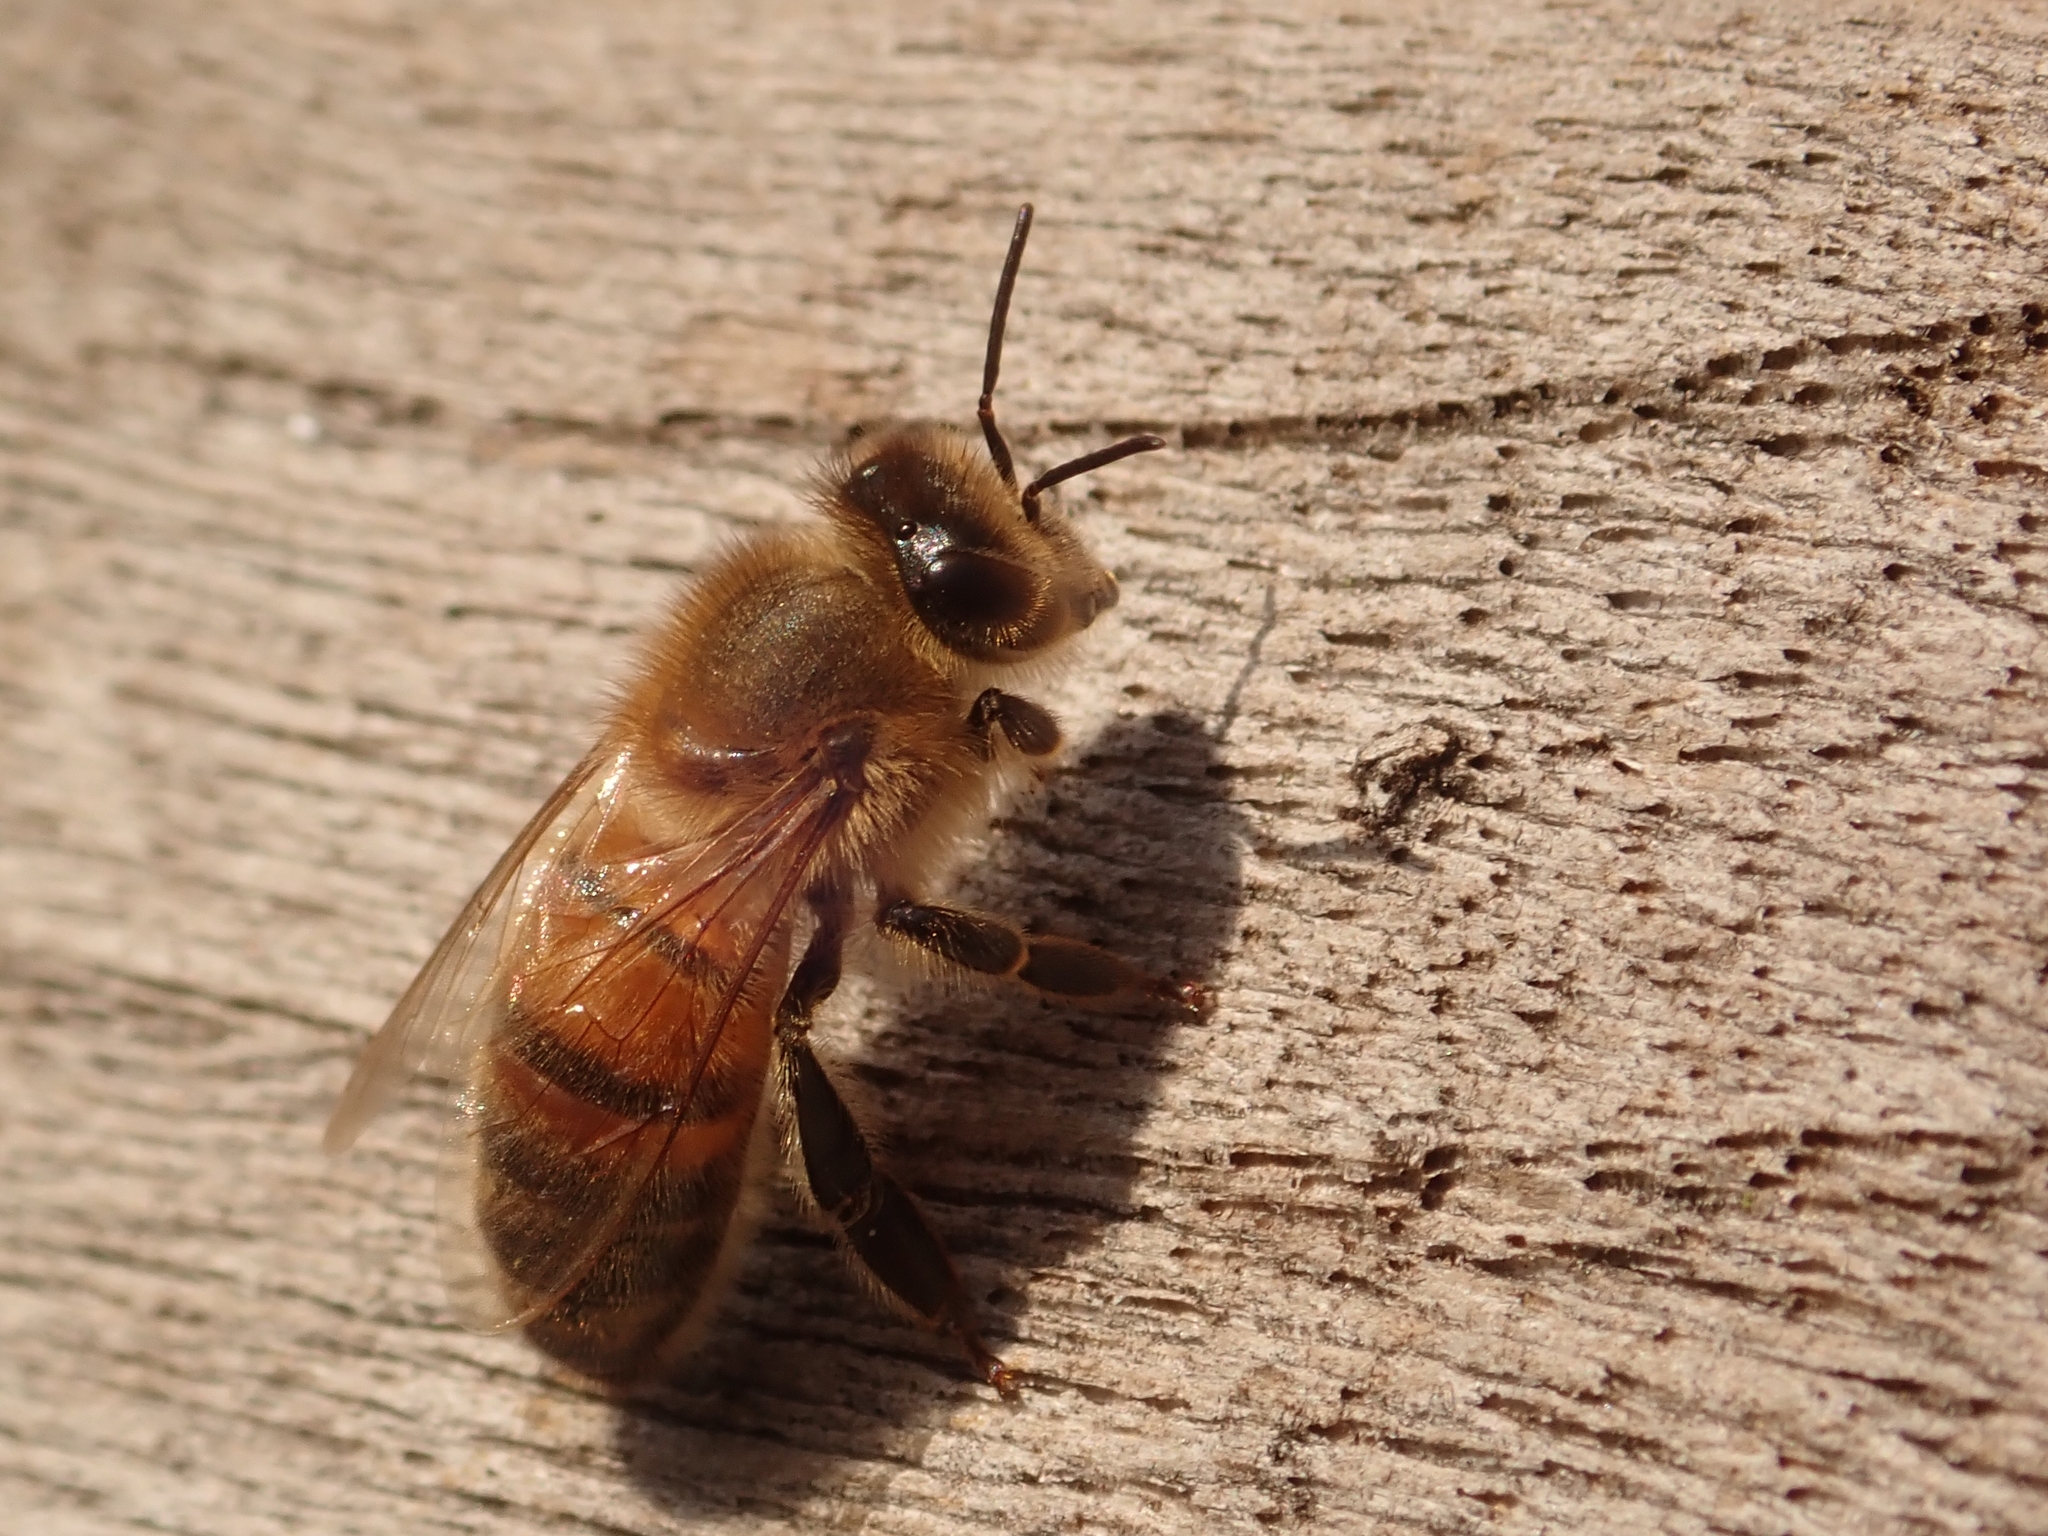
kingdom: Animalia
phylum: Arthropoda
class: Insecta
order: Hymenoptera
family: Apidae
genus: Apis
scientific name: Apis mellifera
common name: Honey bee
